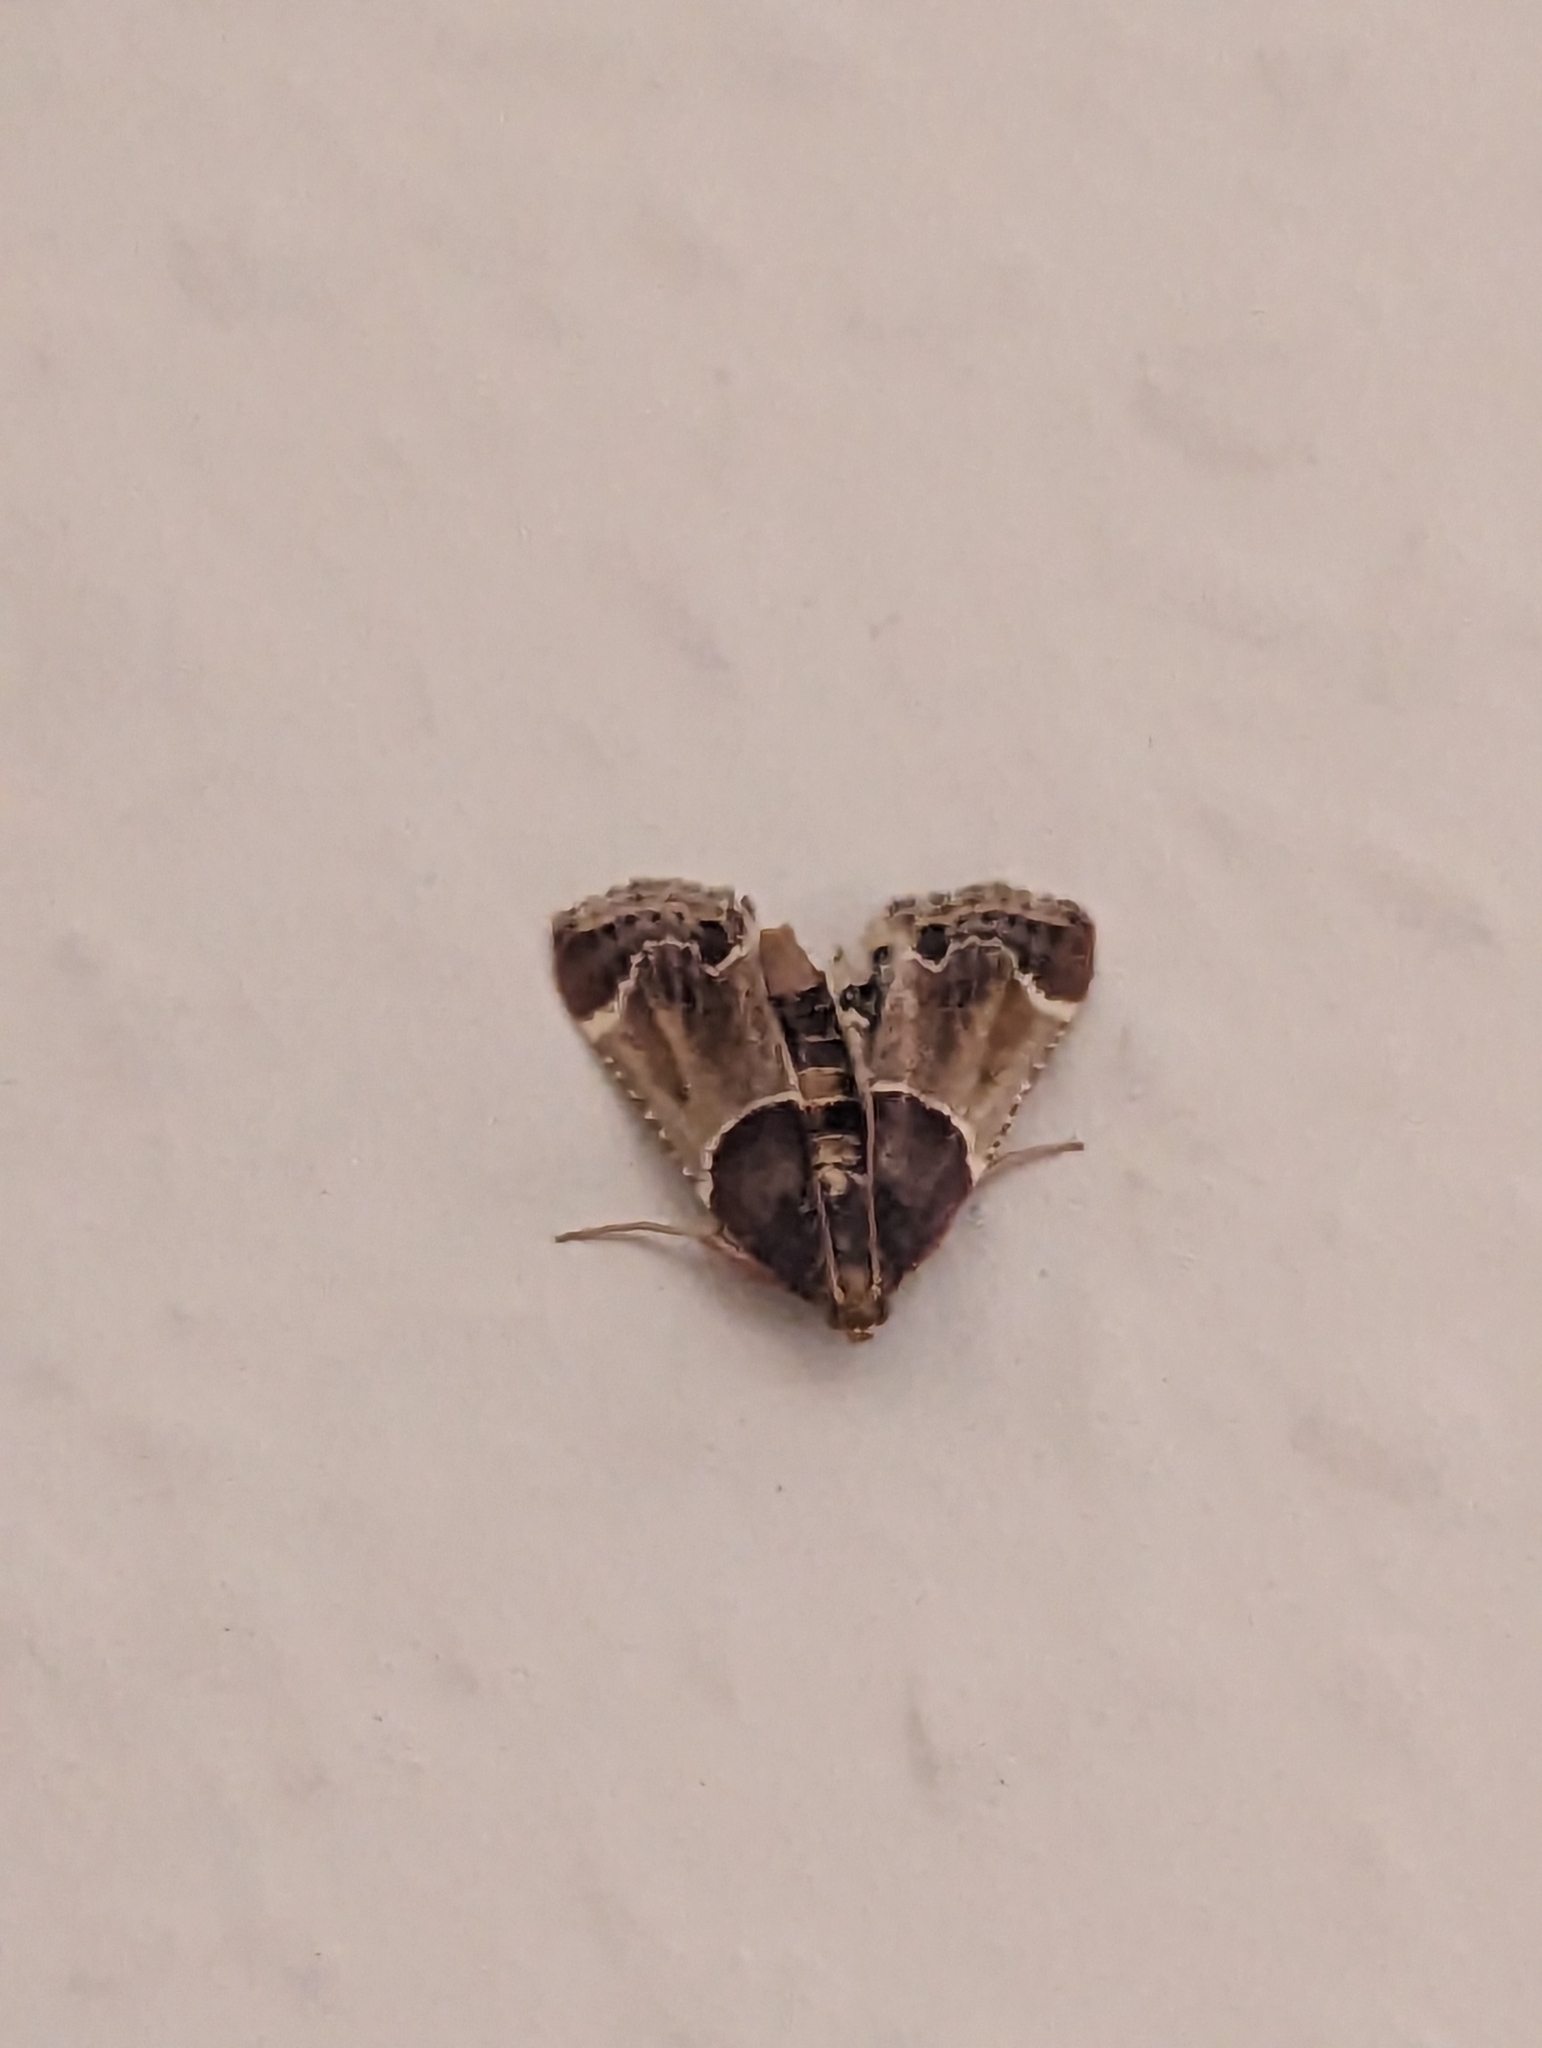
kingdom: Animalia
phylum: Arthropoda
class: Insecta
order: Lepidoptera
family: Pyralidae
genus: Pyralis
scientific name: Pyralis farinalis
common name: Meal moth
